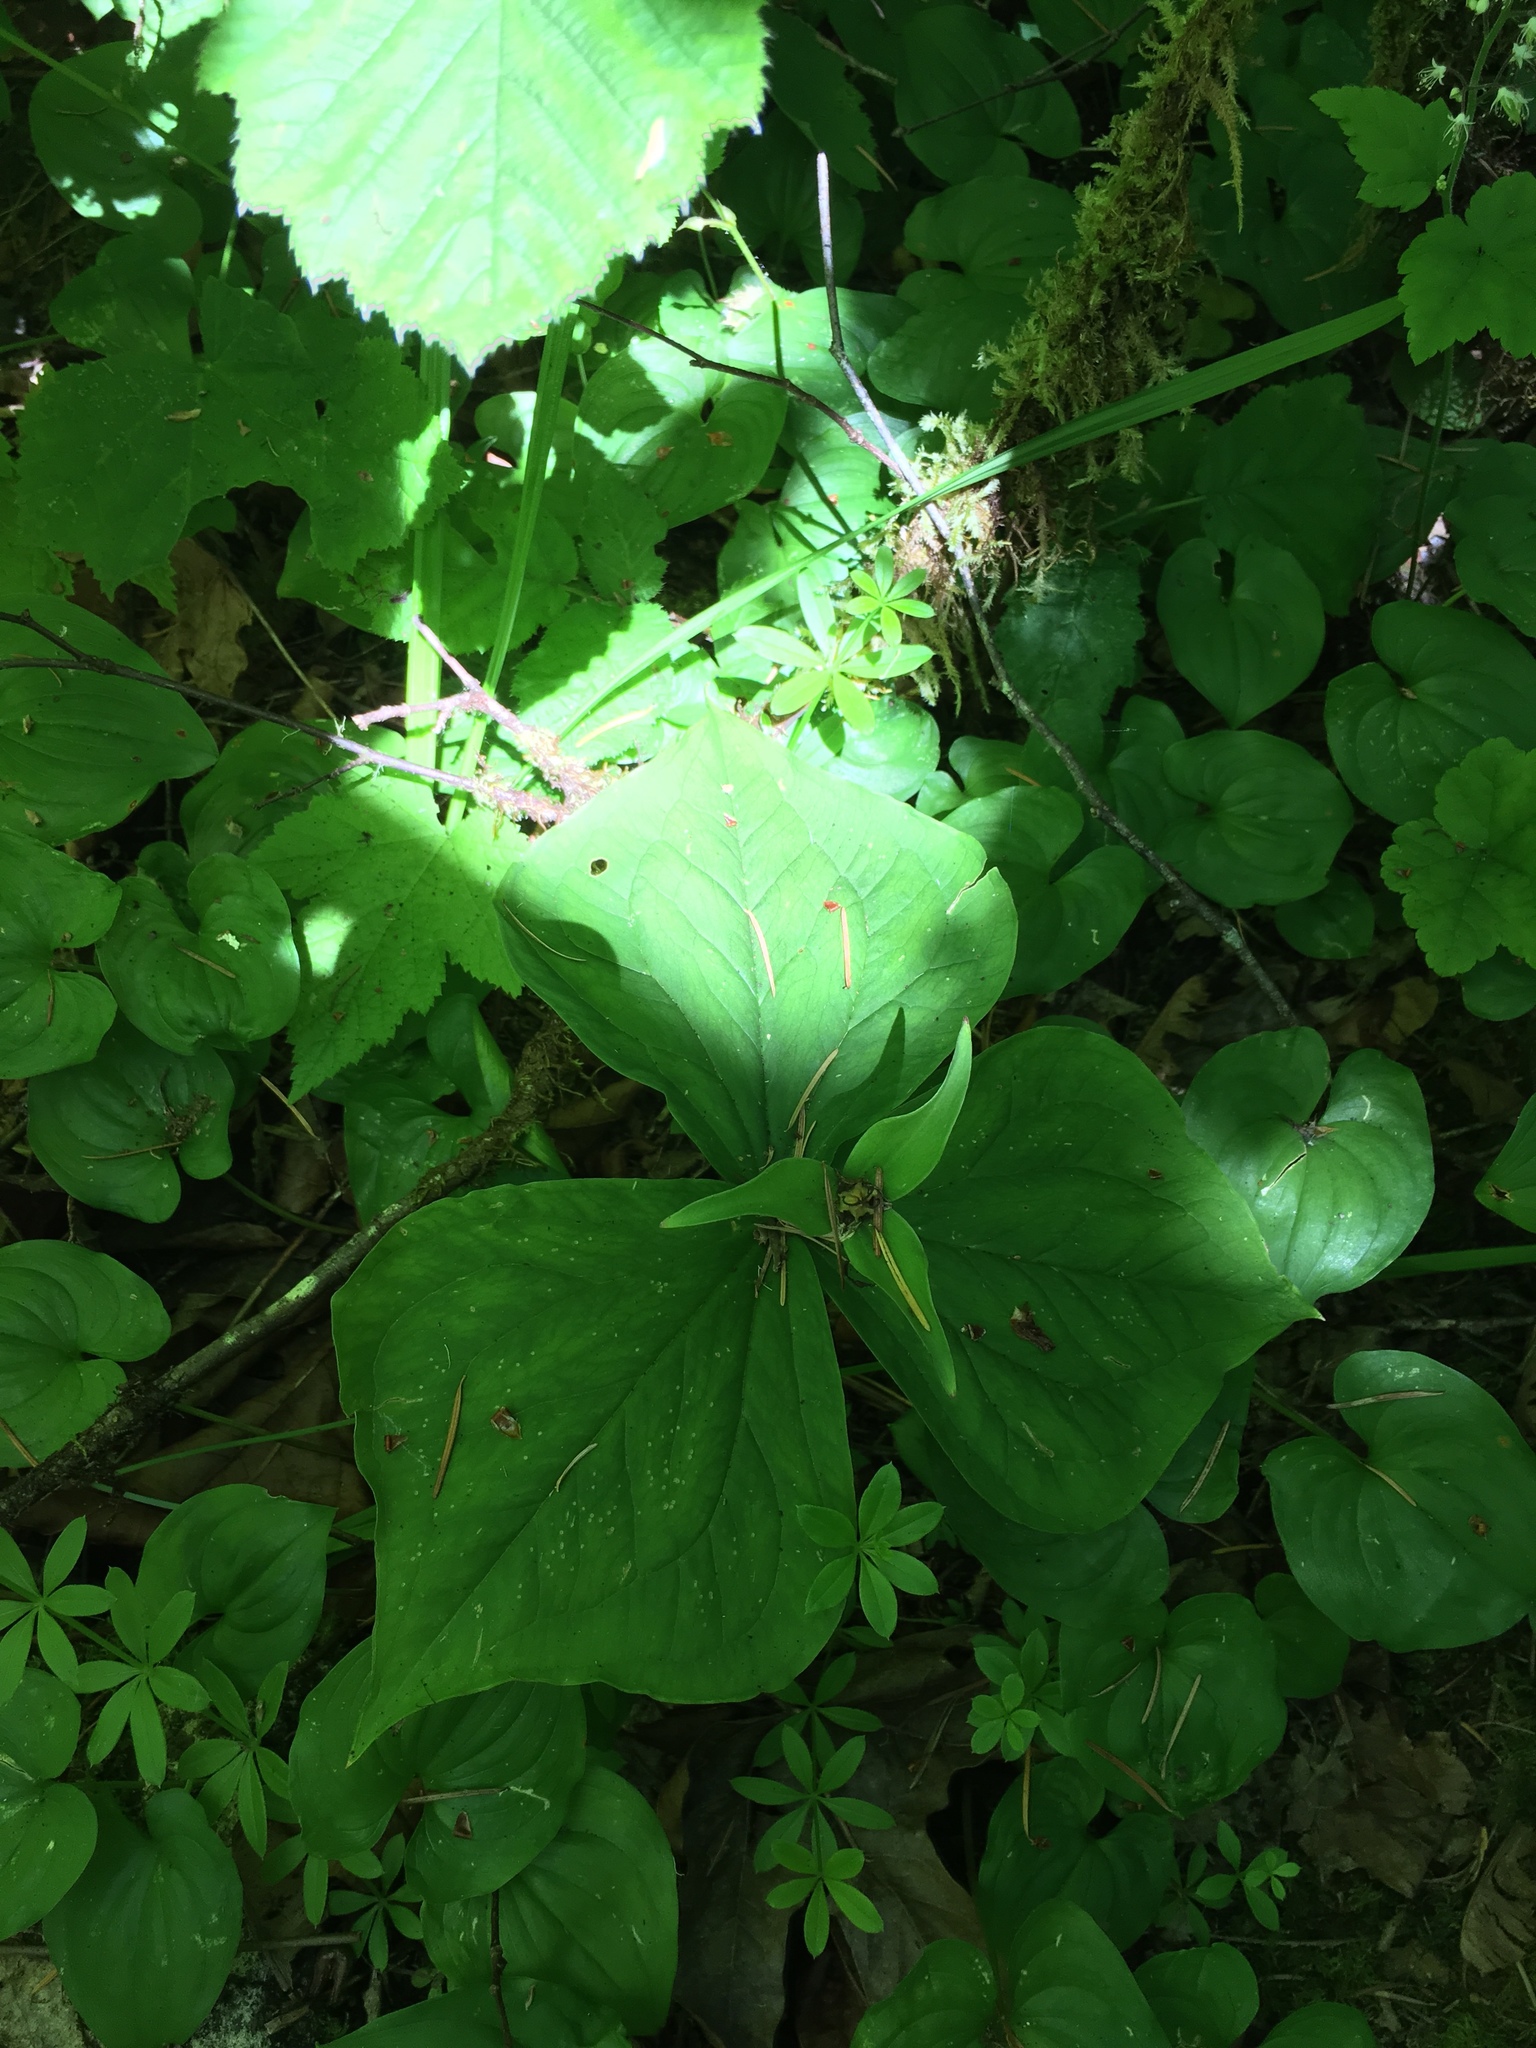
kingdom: Plantae
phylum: Tracheophyta
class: Liliopsida
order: Liliales
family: Melanthiaceae
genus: Trillium
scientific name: Trillium ovatum
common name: Pacific trillium
